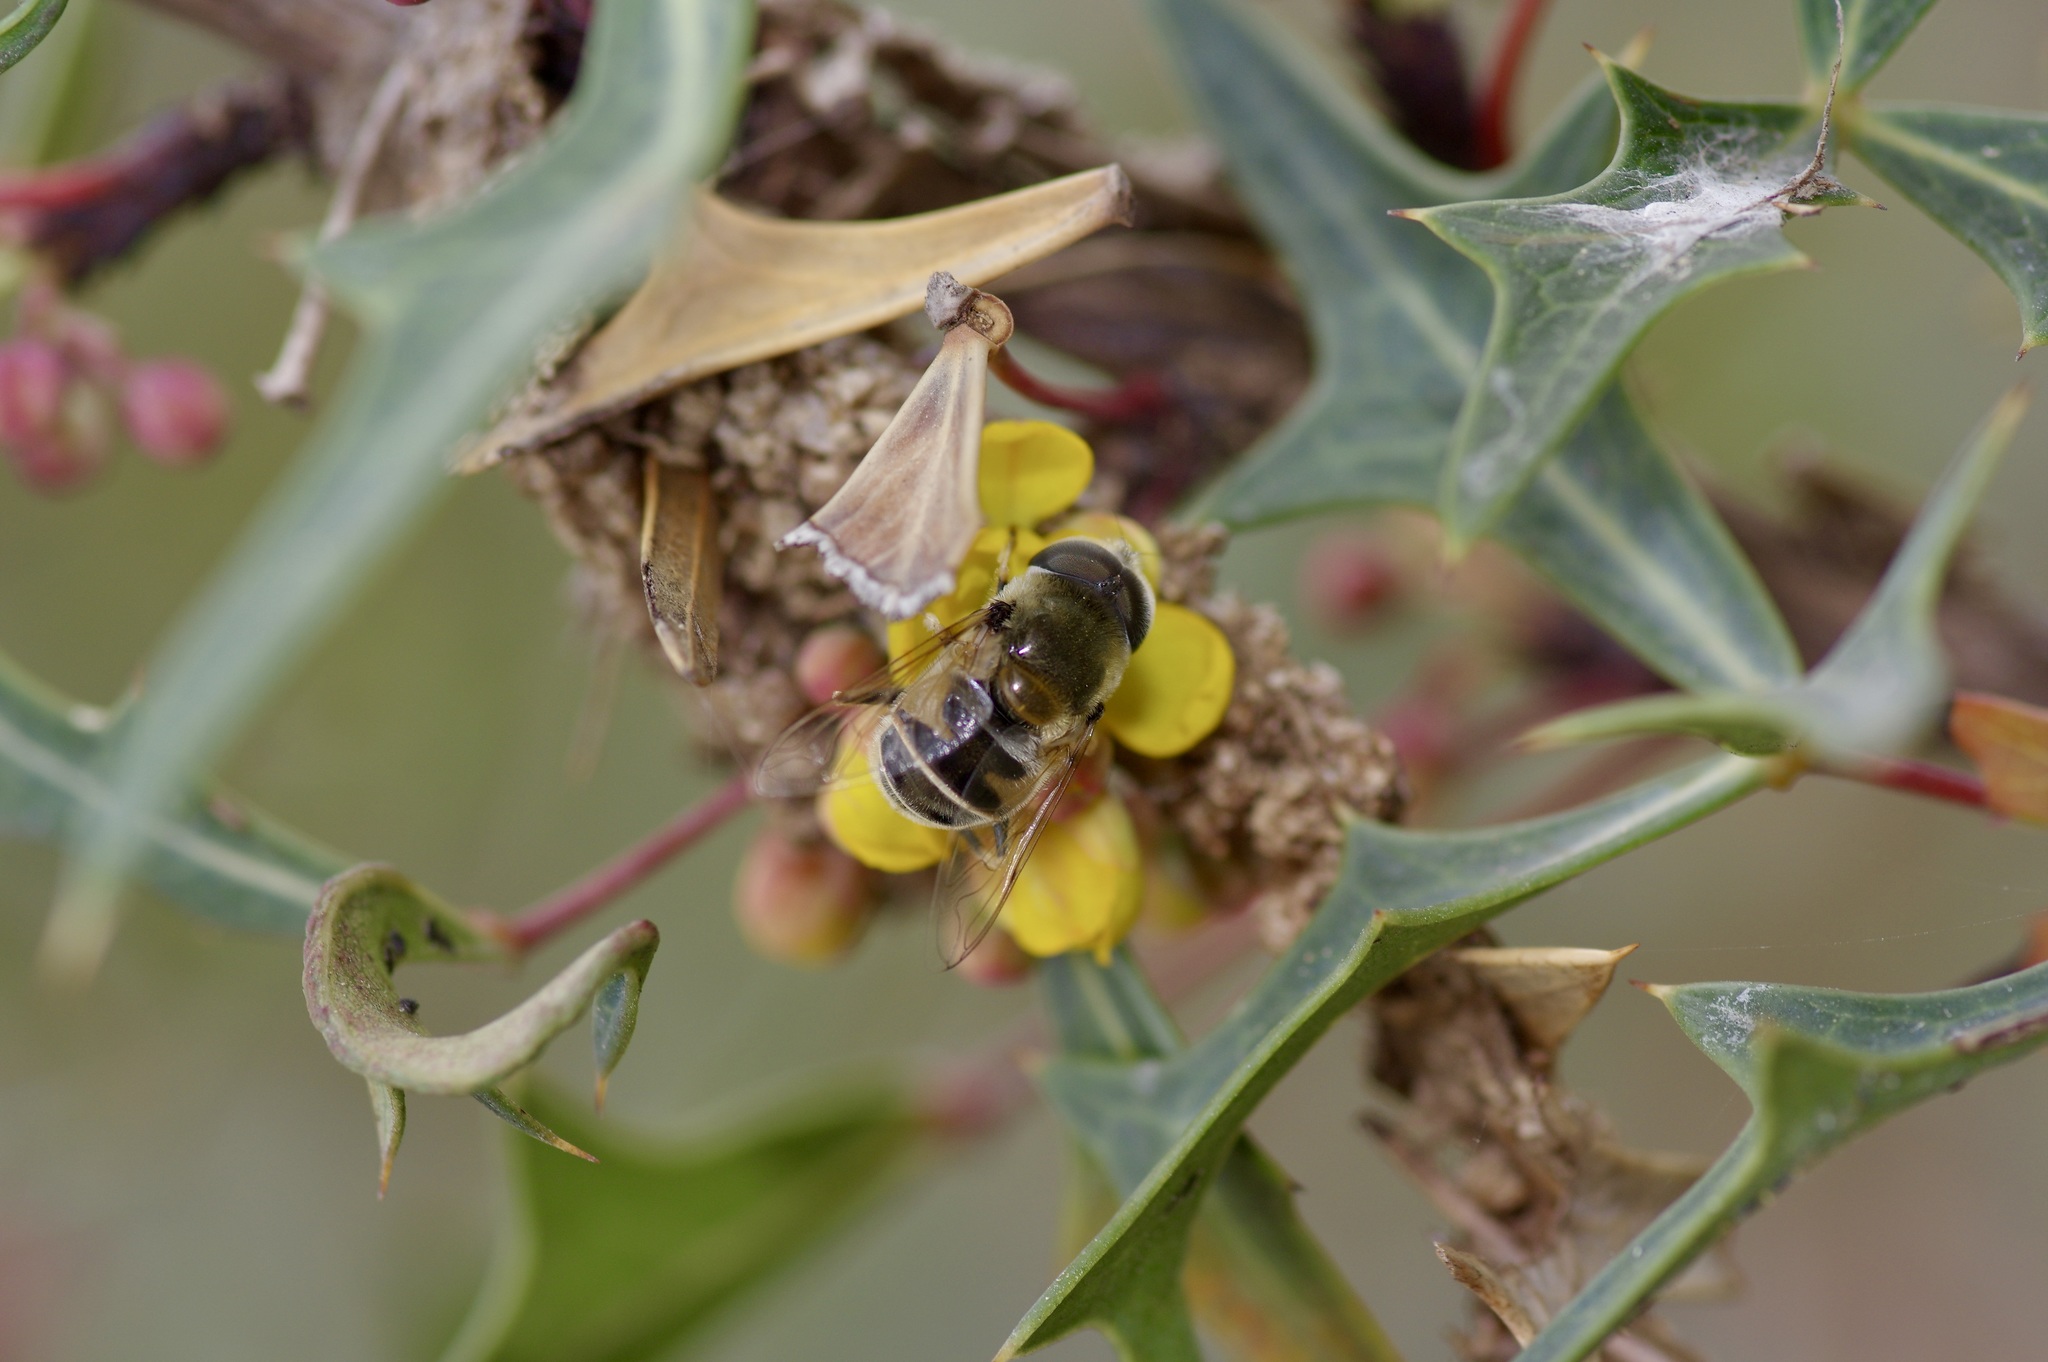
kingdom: Animalia
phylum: Arthropoda
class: Insecta
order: Diptera
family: Syrphidae
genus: Eristalis
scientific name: Eristalis stipator
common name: Yellow-shouldered drone fly
